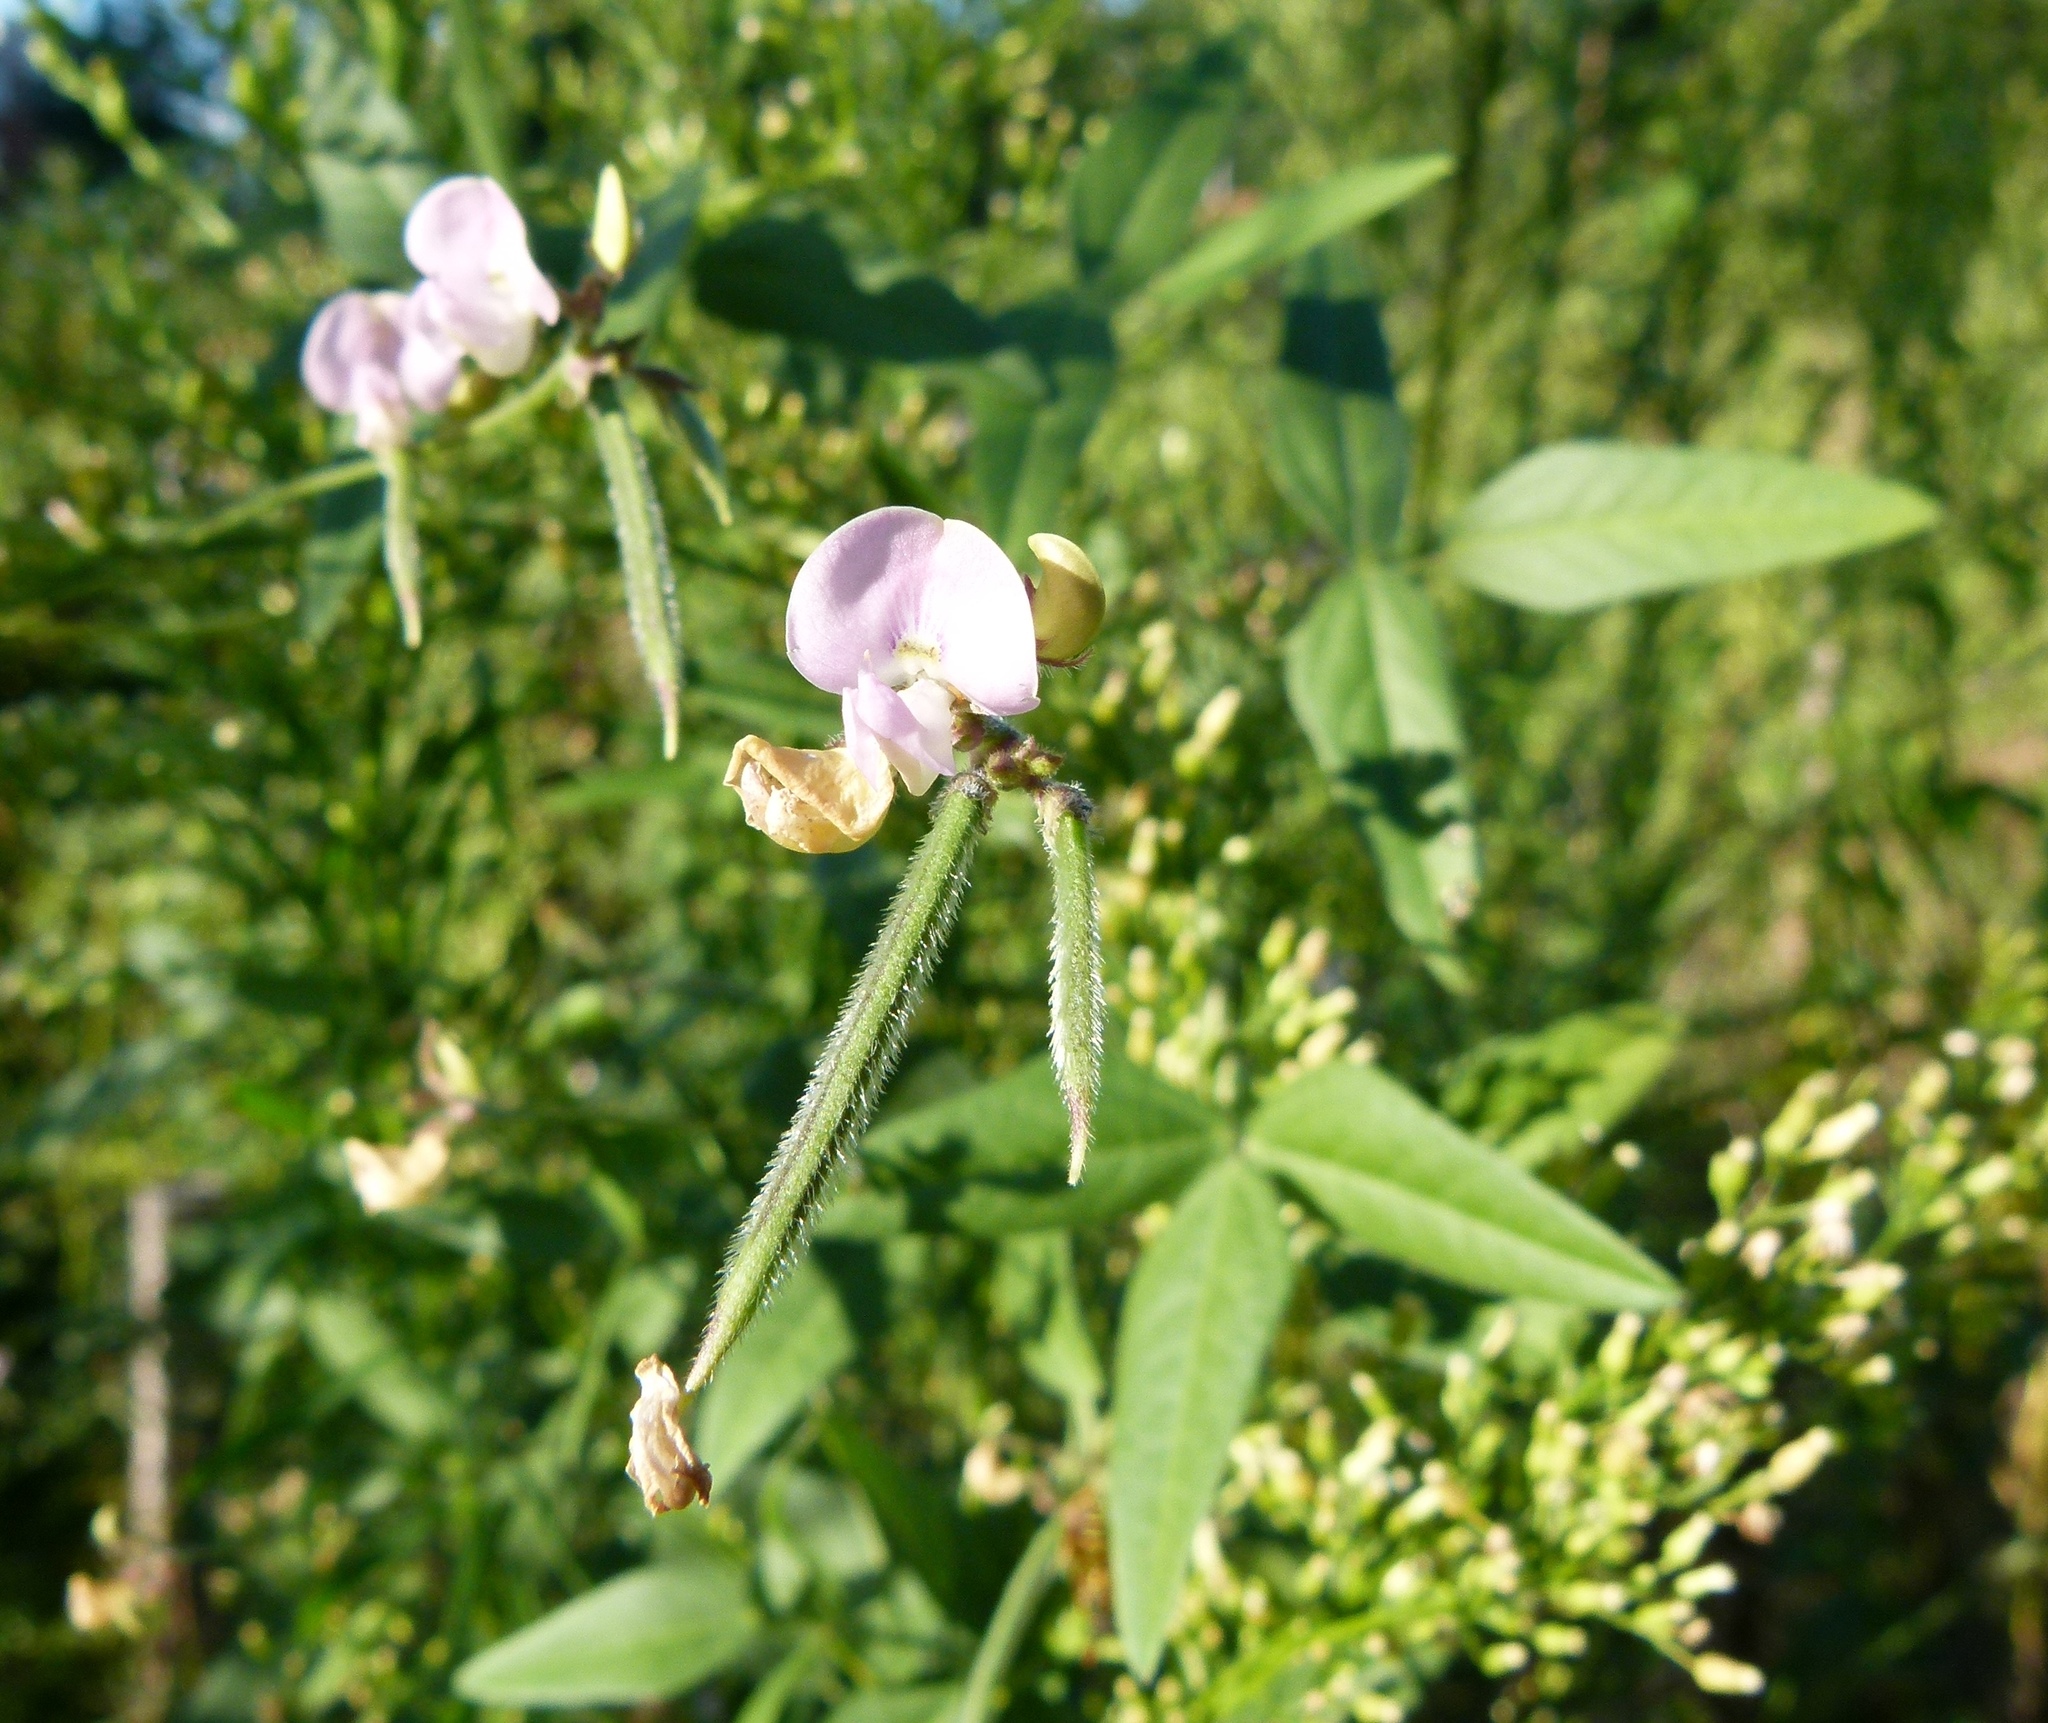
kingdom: Plantae
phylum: Tracheophyta
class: Magnoliopsida
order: Fabales
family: Fabaceae
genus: Strophostyles
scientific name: Strophostyles leiosperma
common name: Smooth-seed wild bean
